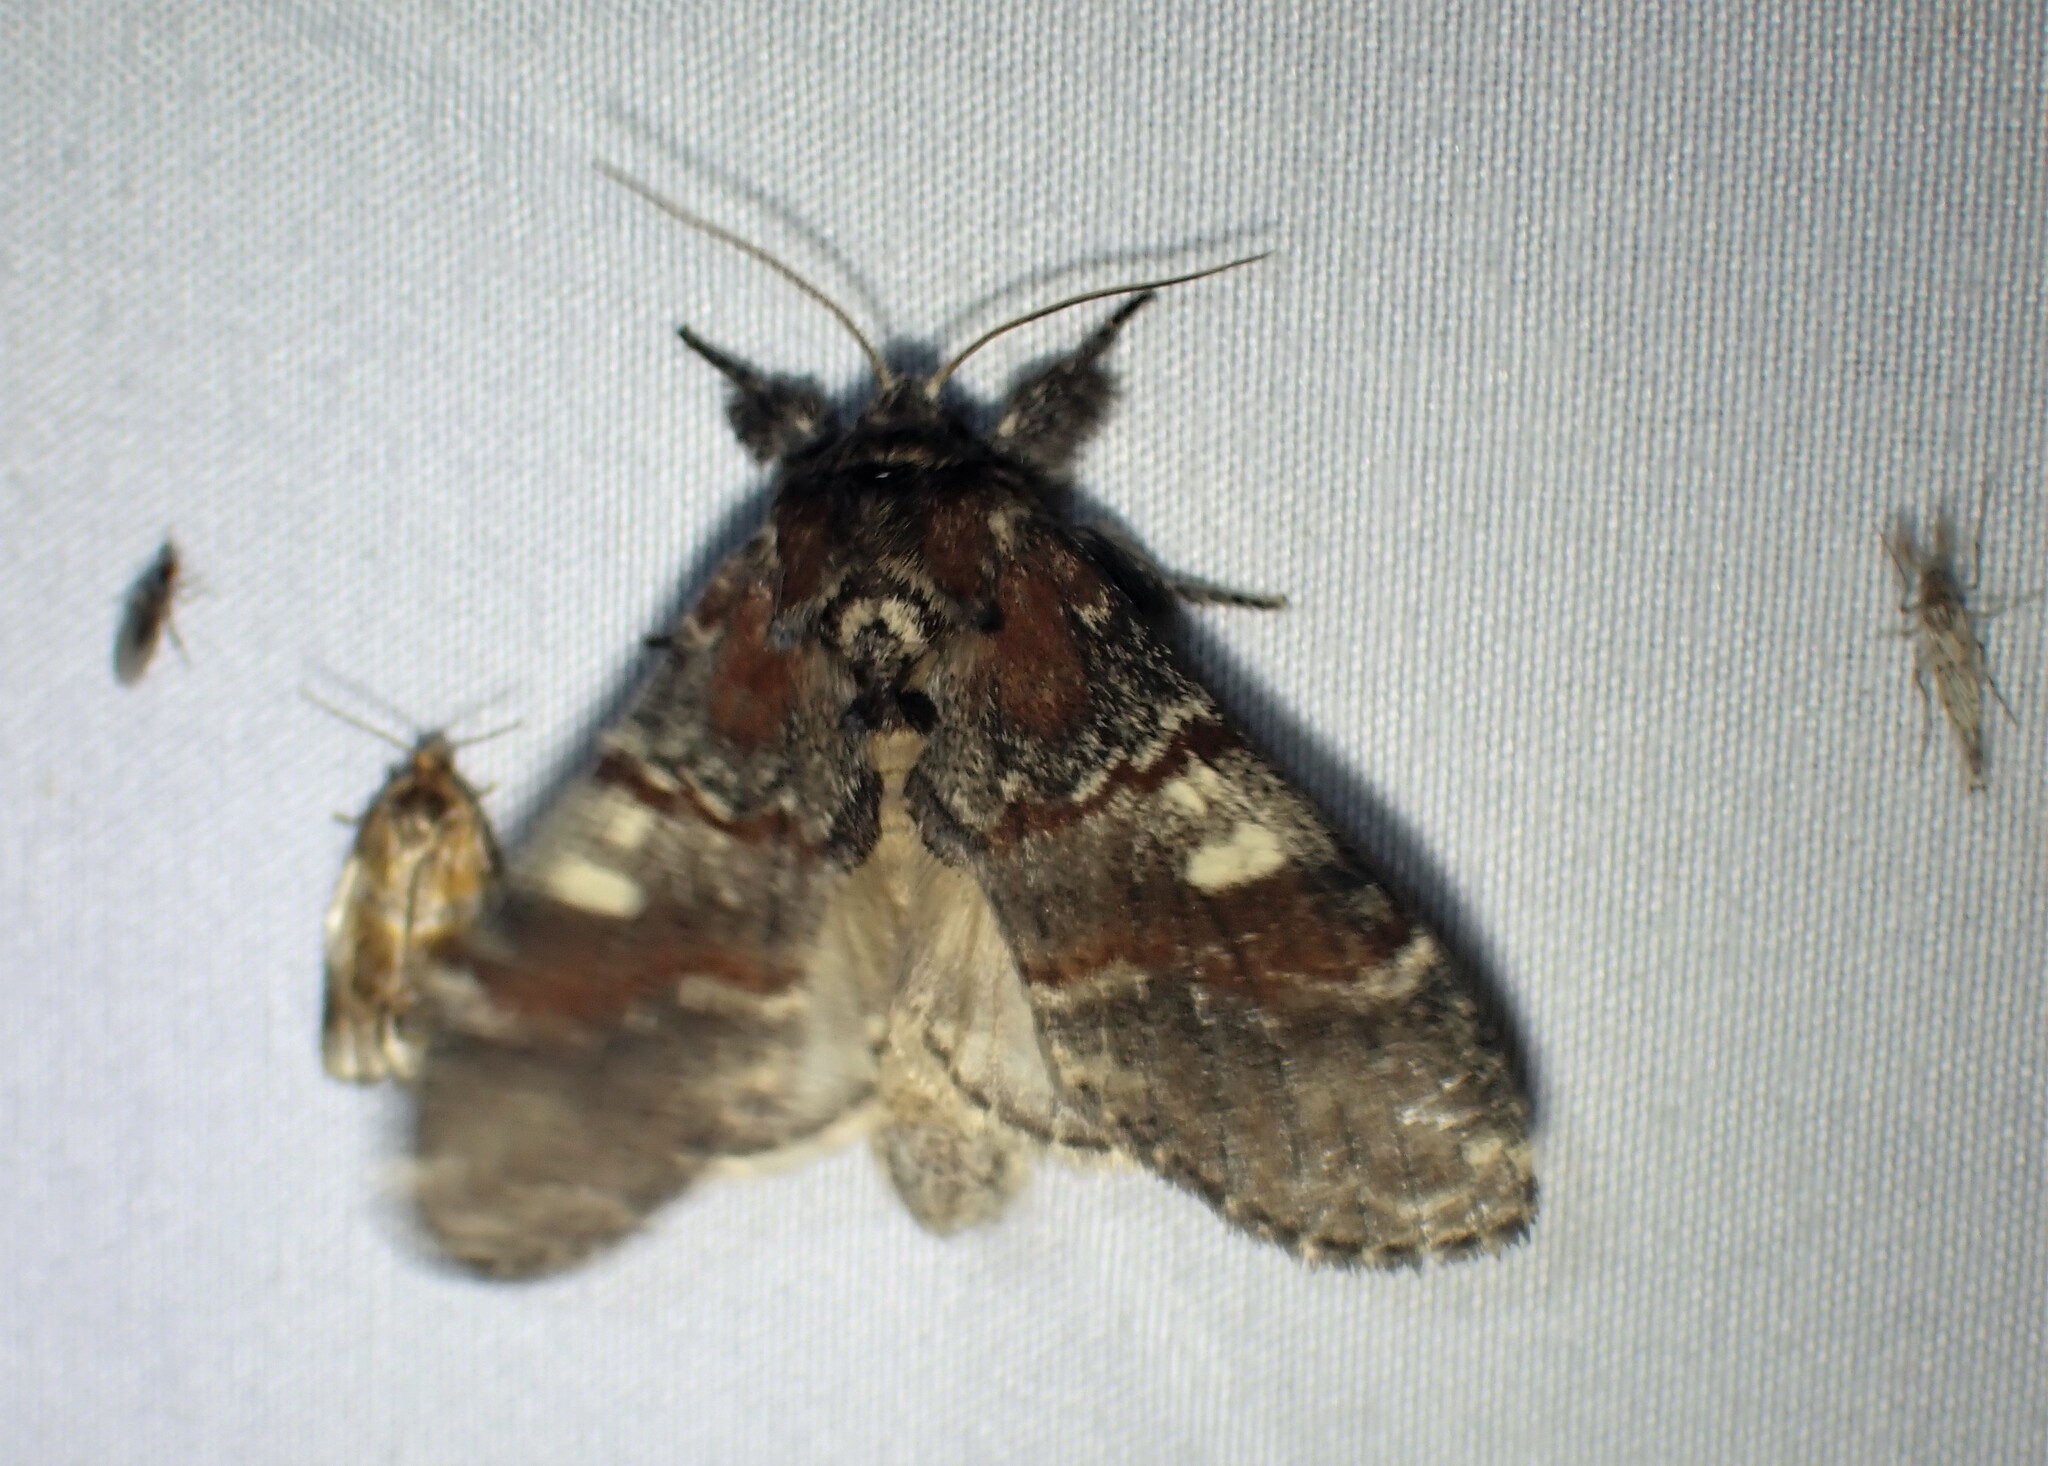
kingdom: Animalia
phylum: Arthropoda
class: Insecta
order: Lepidoptera
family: Notodontidae
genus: Peridea
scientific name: Peridea ferruginea
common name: Chocolate prominent
